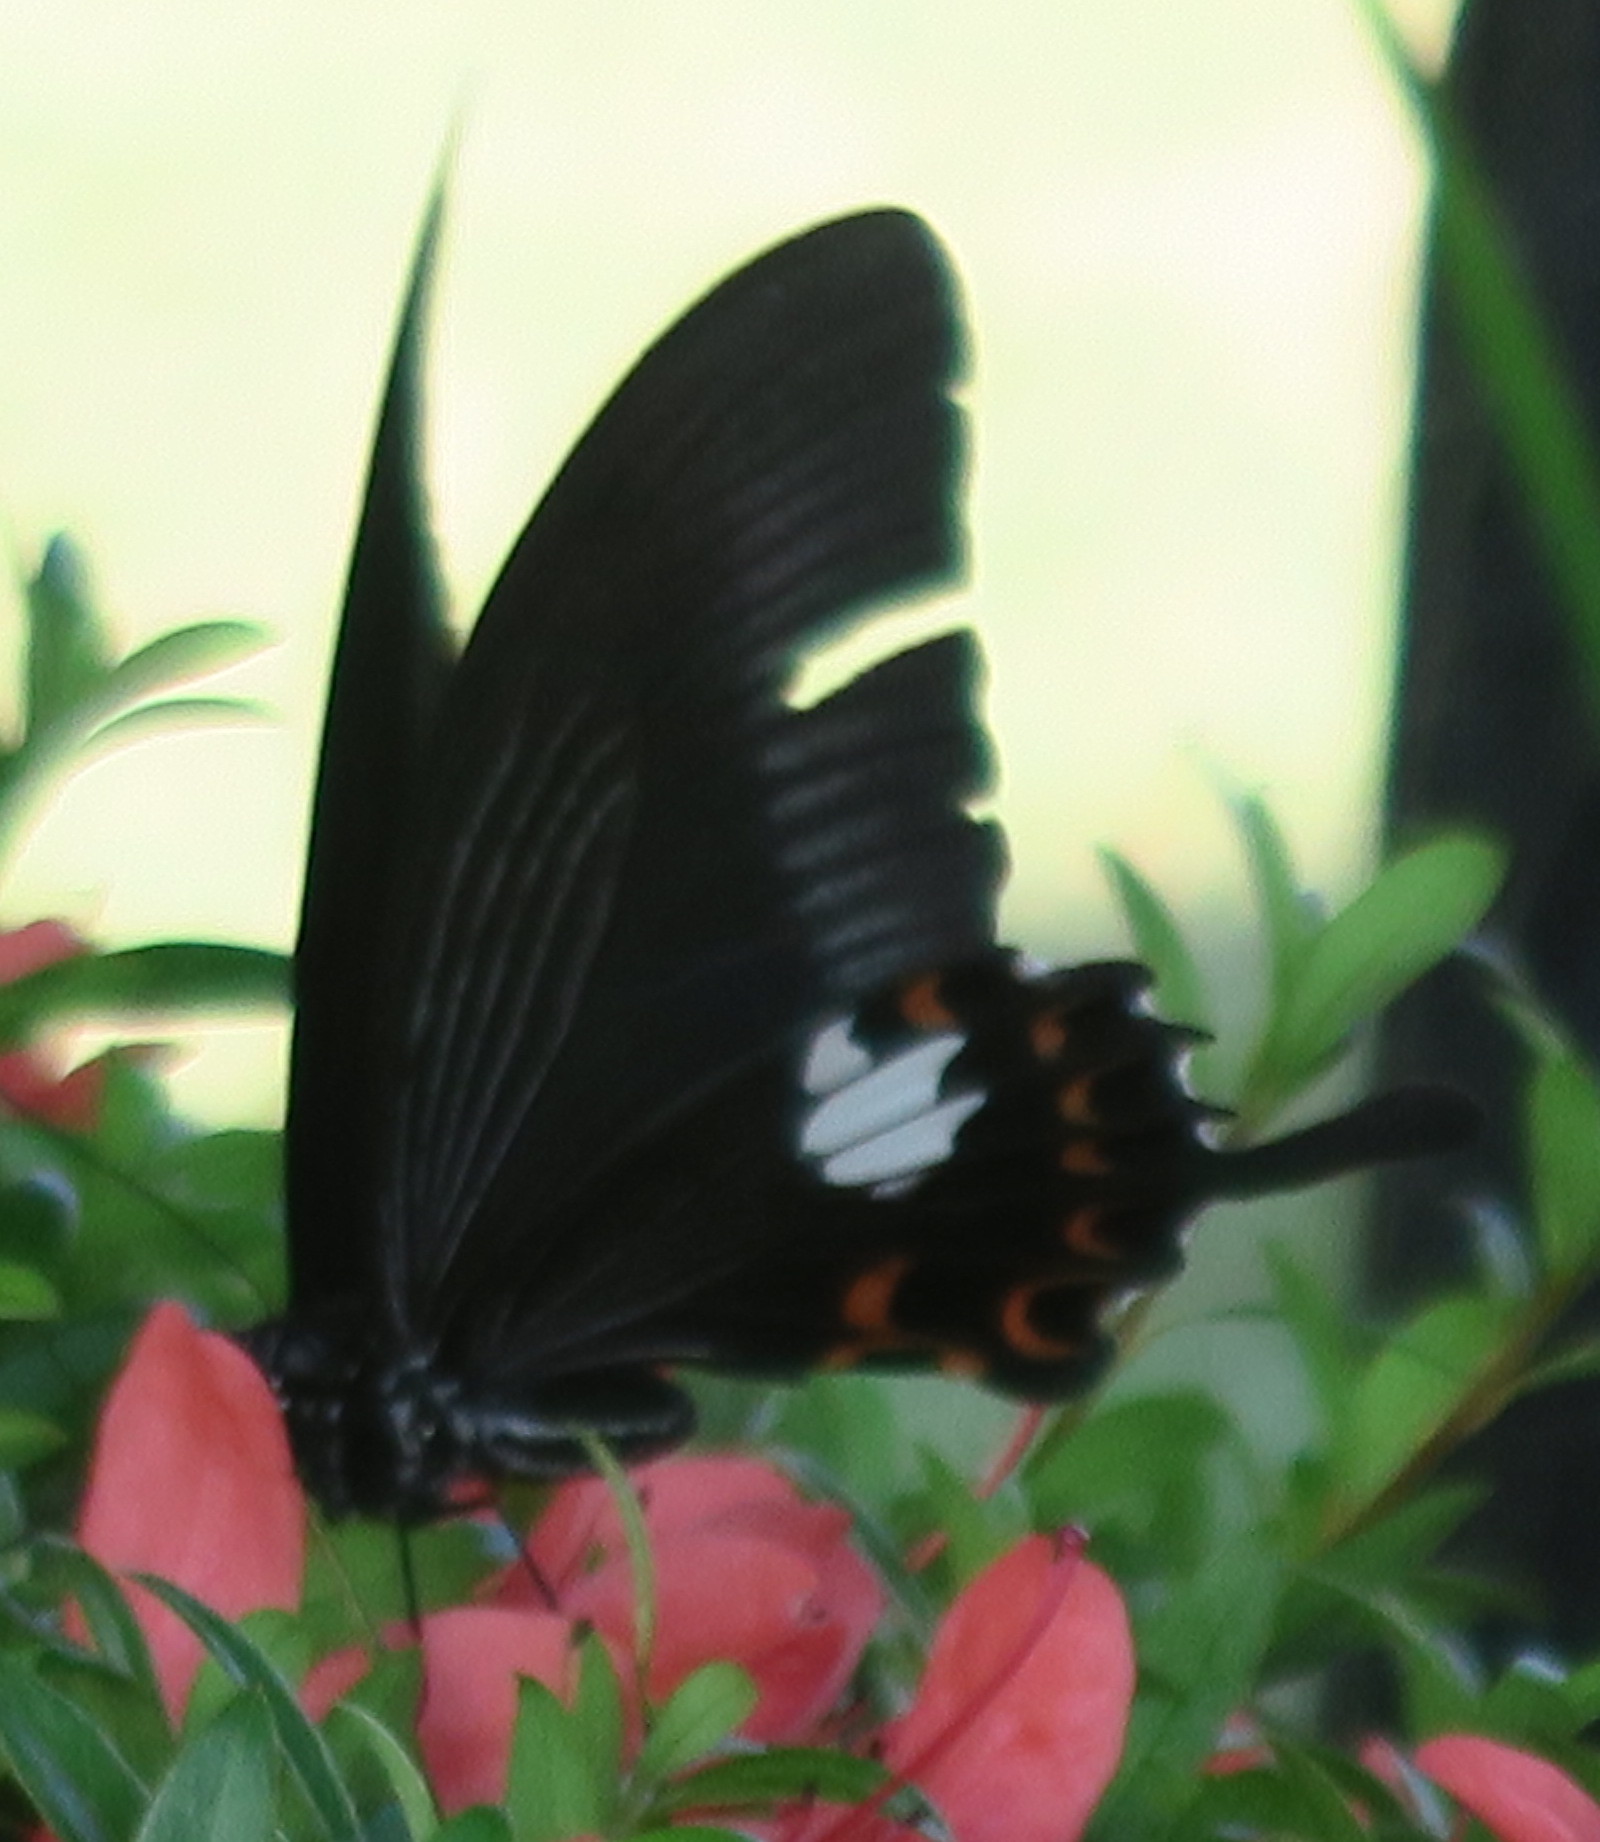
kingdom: Animalia
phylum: Arthropoda
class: Insecta
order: Lepidoptera
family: Papilionidae
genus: Papilio
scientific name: Papilio helenus
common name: Red helen
